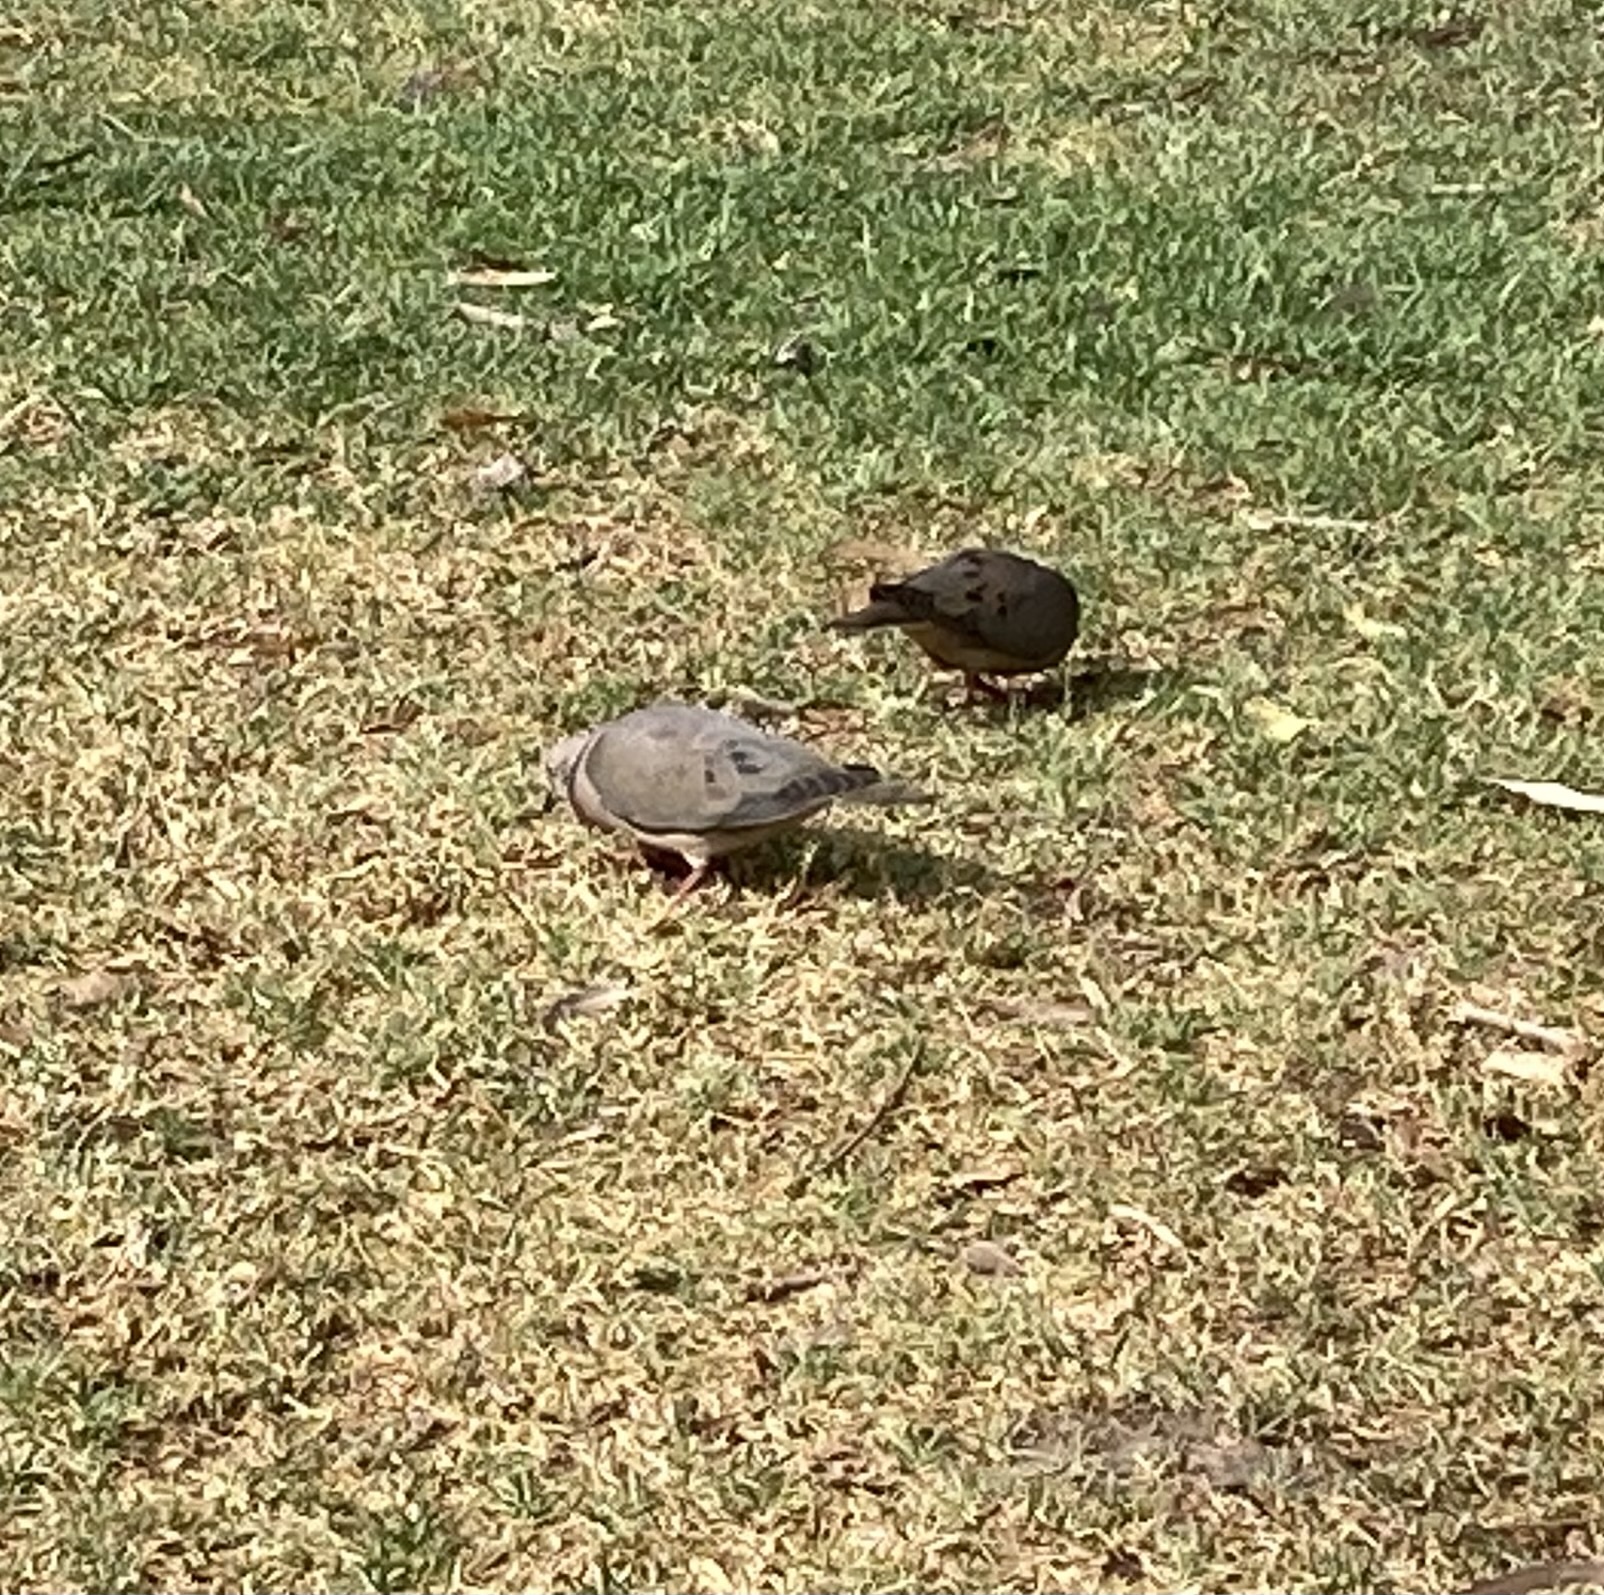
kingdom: Animalia
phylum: Chordata
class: Aves
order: Columbiformes
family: Columbidae
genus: Zenaida
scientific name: Zenaida auriculata
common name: Eared dove
